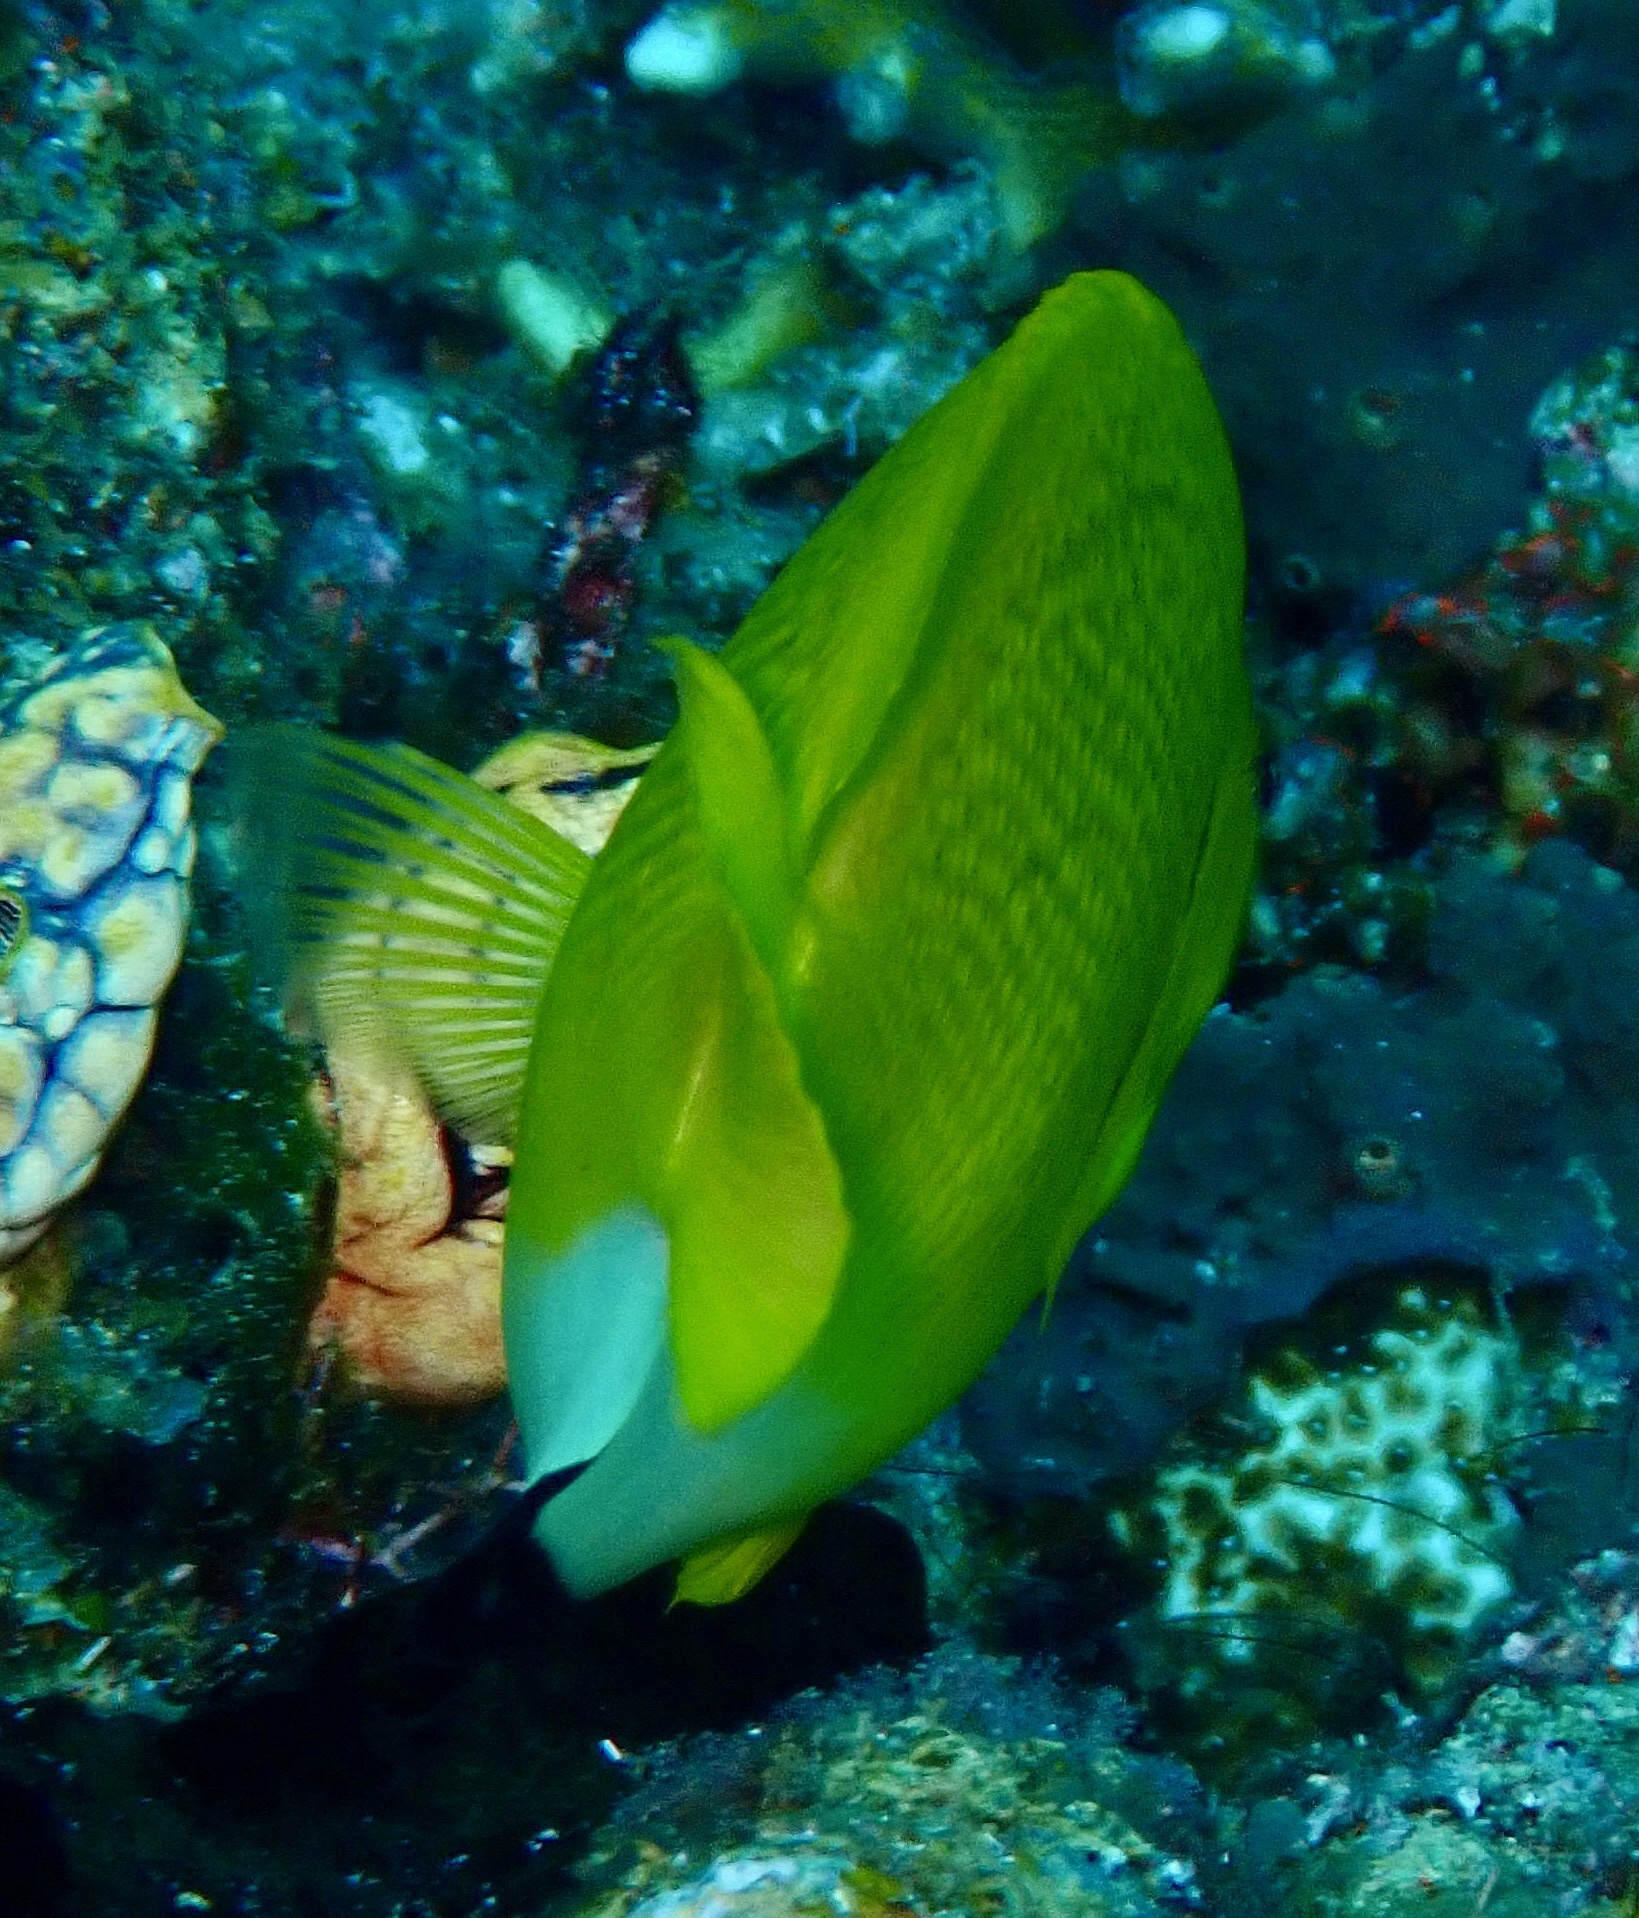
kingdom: Animalia
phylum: Chordata
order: Perciformes
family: Pomacanthidae
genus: Apolemichthys
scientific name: Apolemichthys trimaculatus
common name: Threespot angelfish
